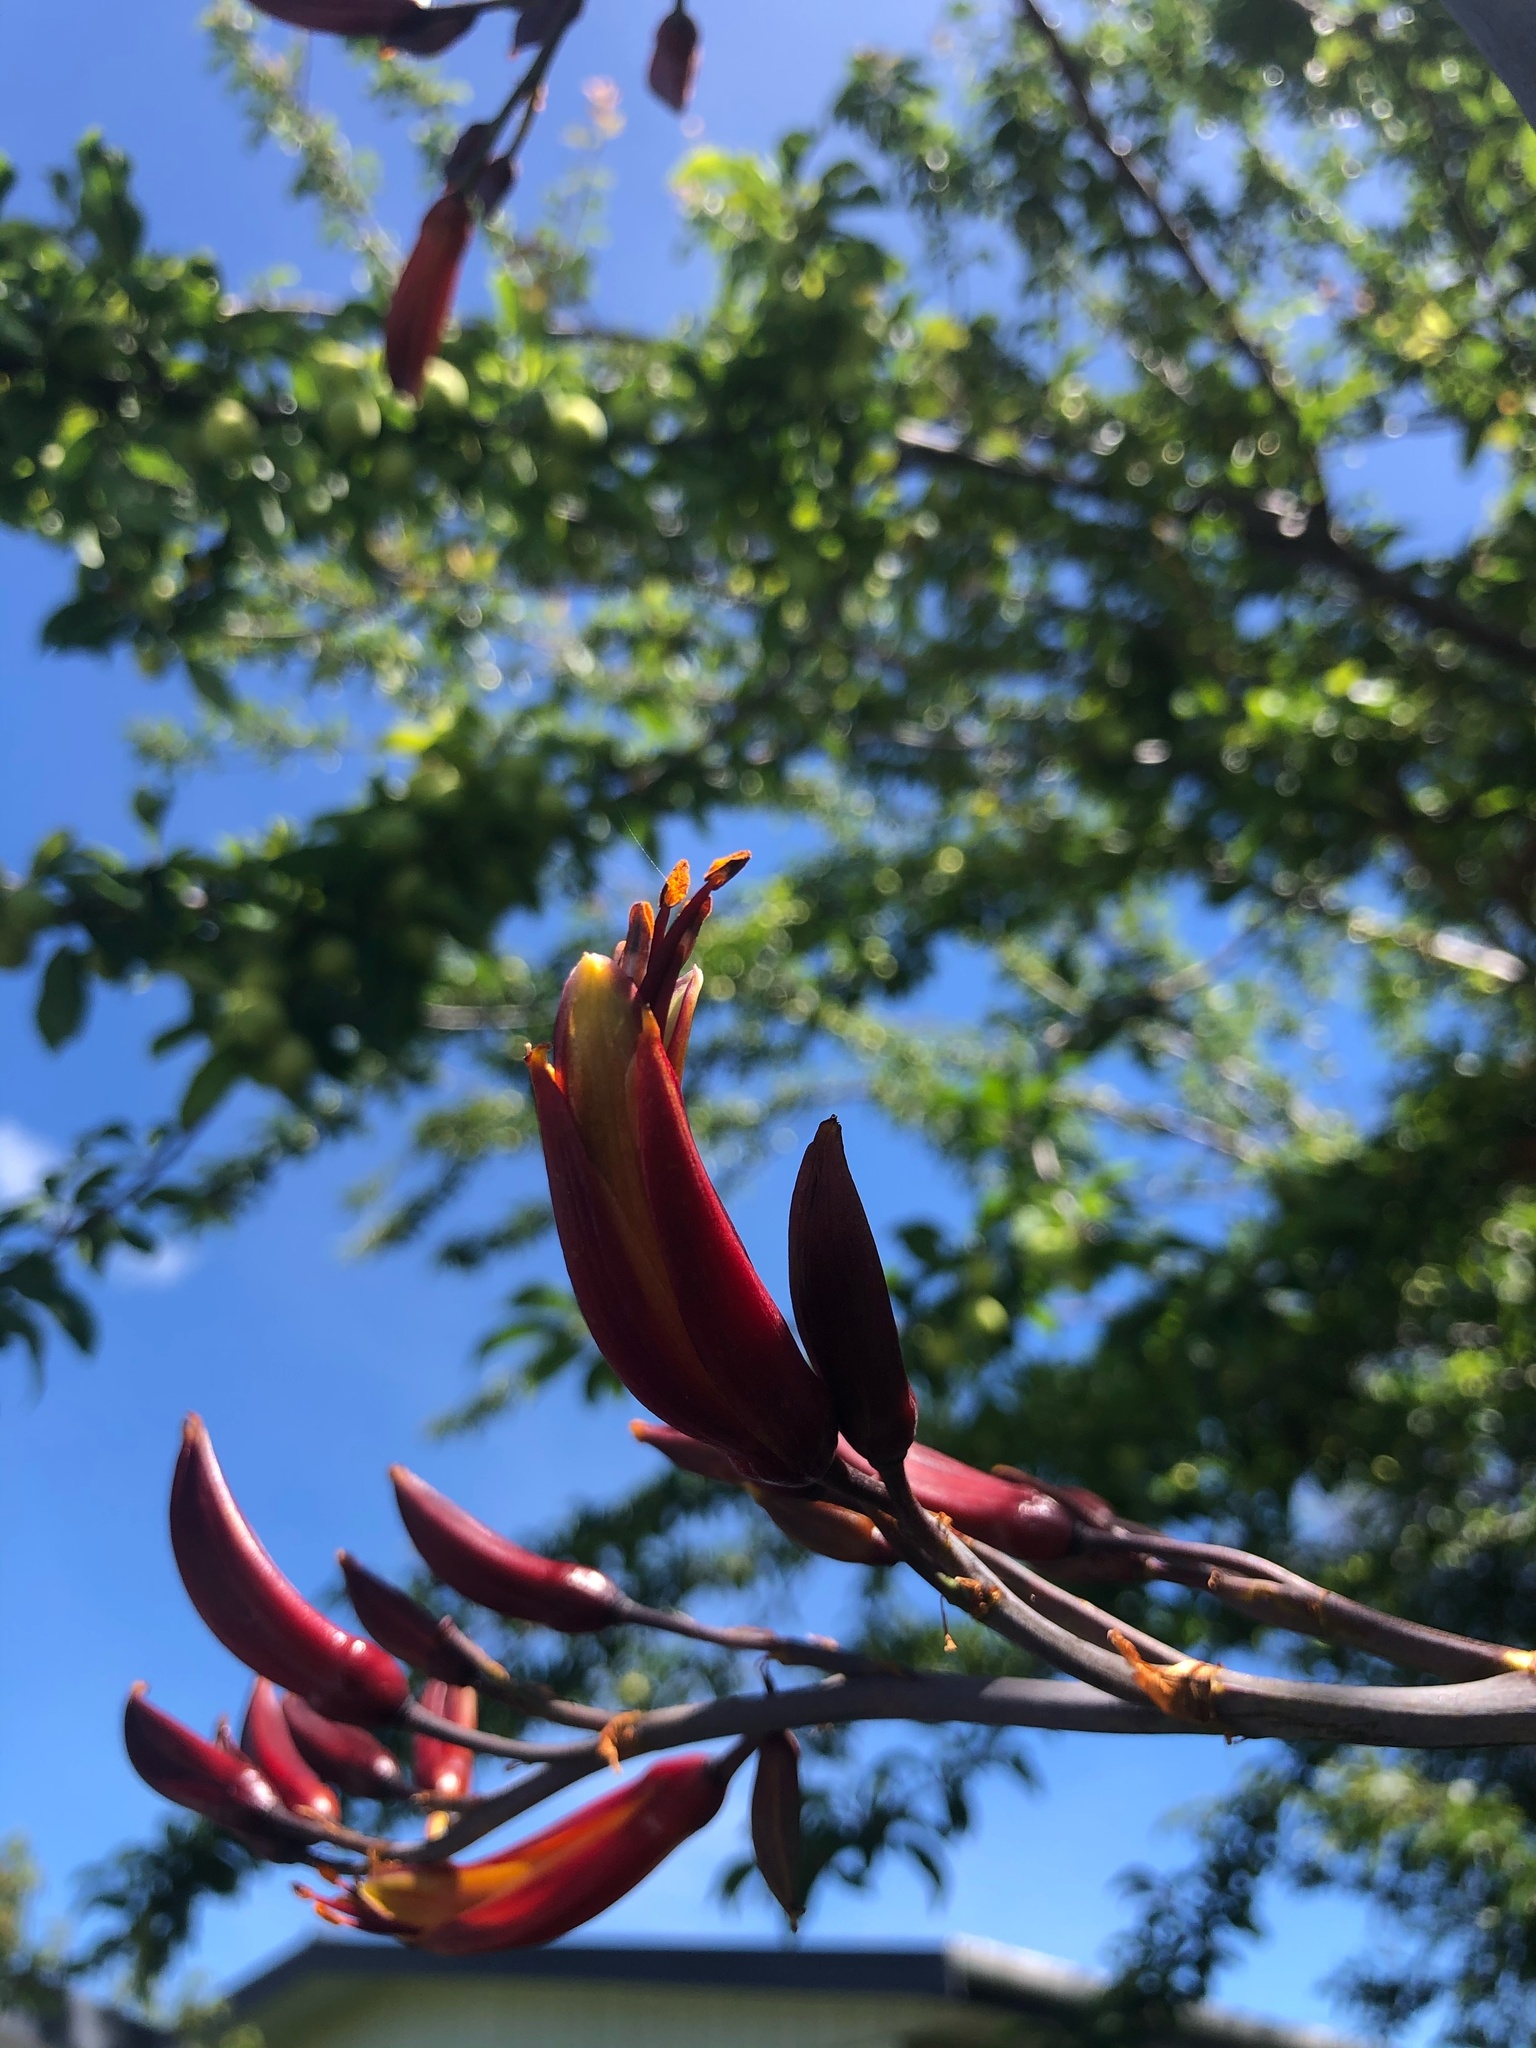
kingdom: Plantae
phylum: Tracheophyta
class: Liliopsida
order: Asparagales
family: Asphodelaceae
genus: Phormium
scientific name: Phormium tenax
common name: New zealand flax
